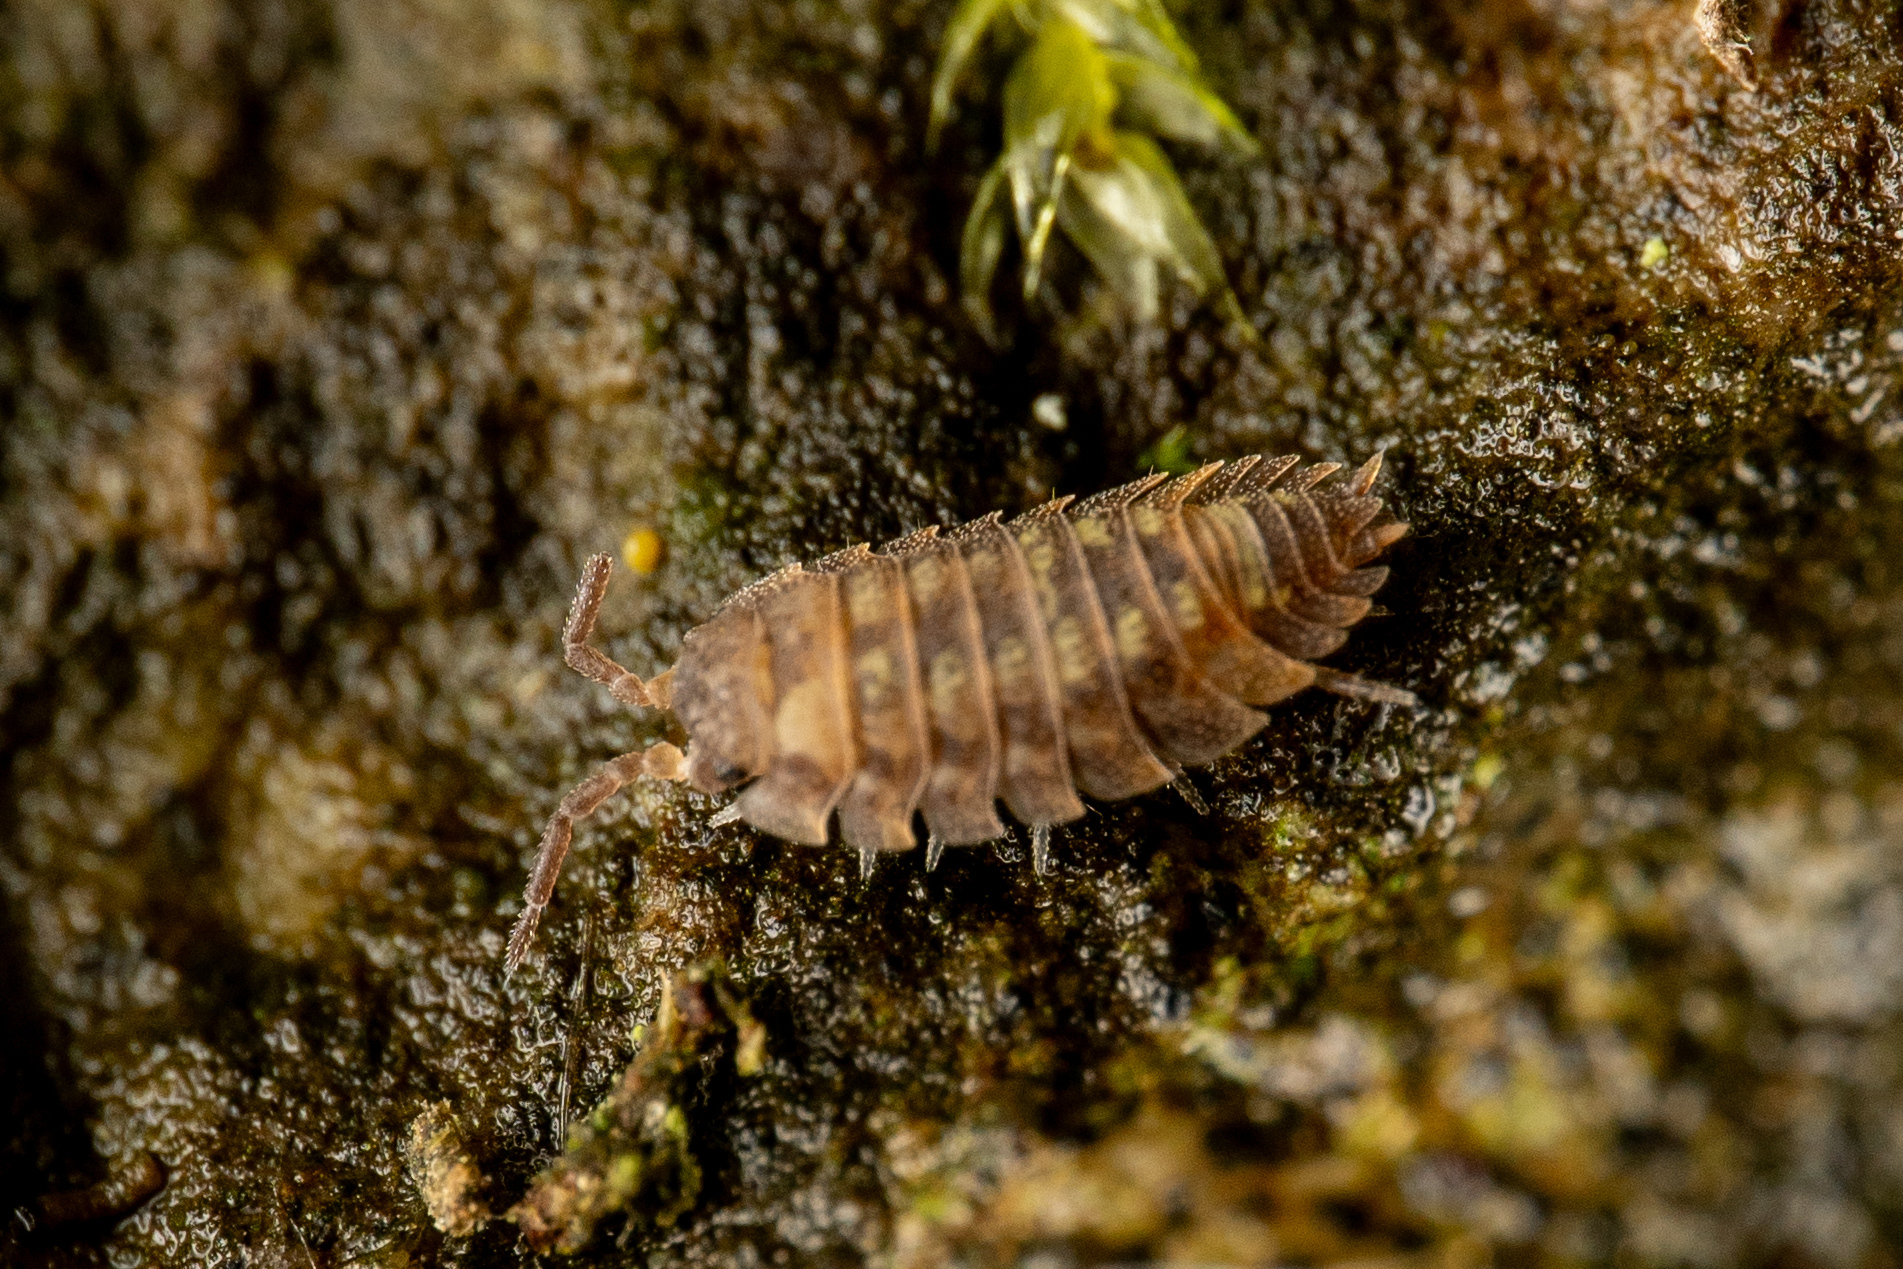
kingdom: Animalia
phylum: Arthropoda
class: Malacostraca
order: Isopoda
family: Oniscidae
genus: Oniscus
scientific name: Oniscus asellus
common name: Common shiny woodlouse
